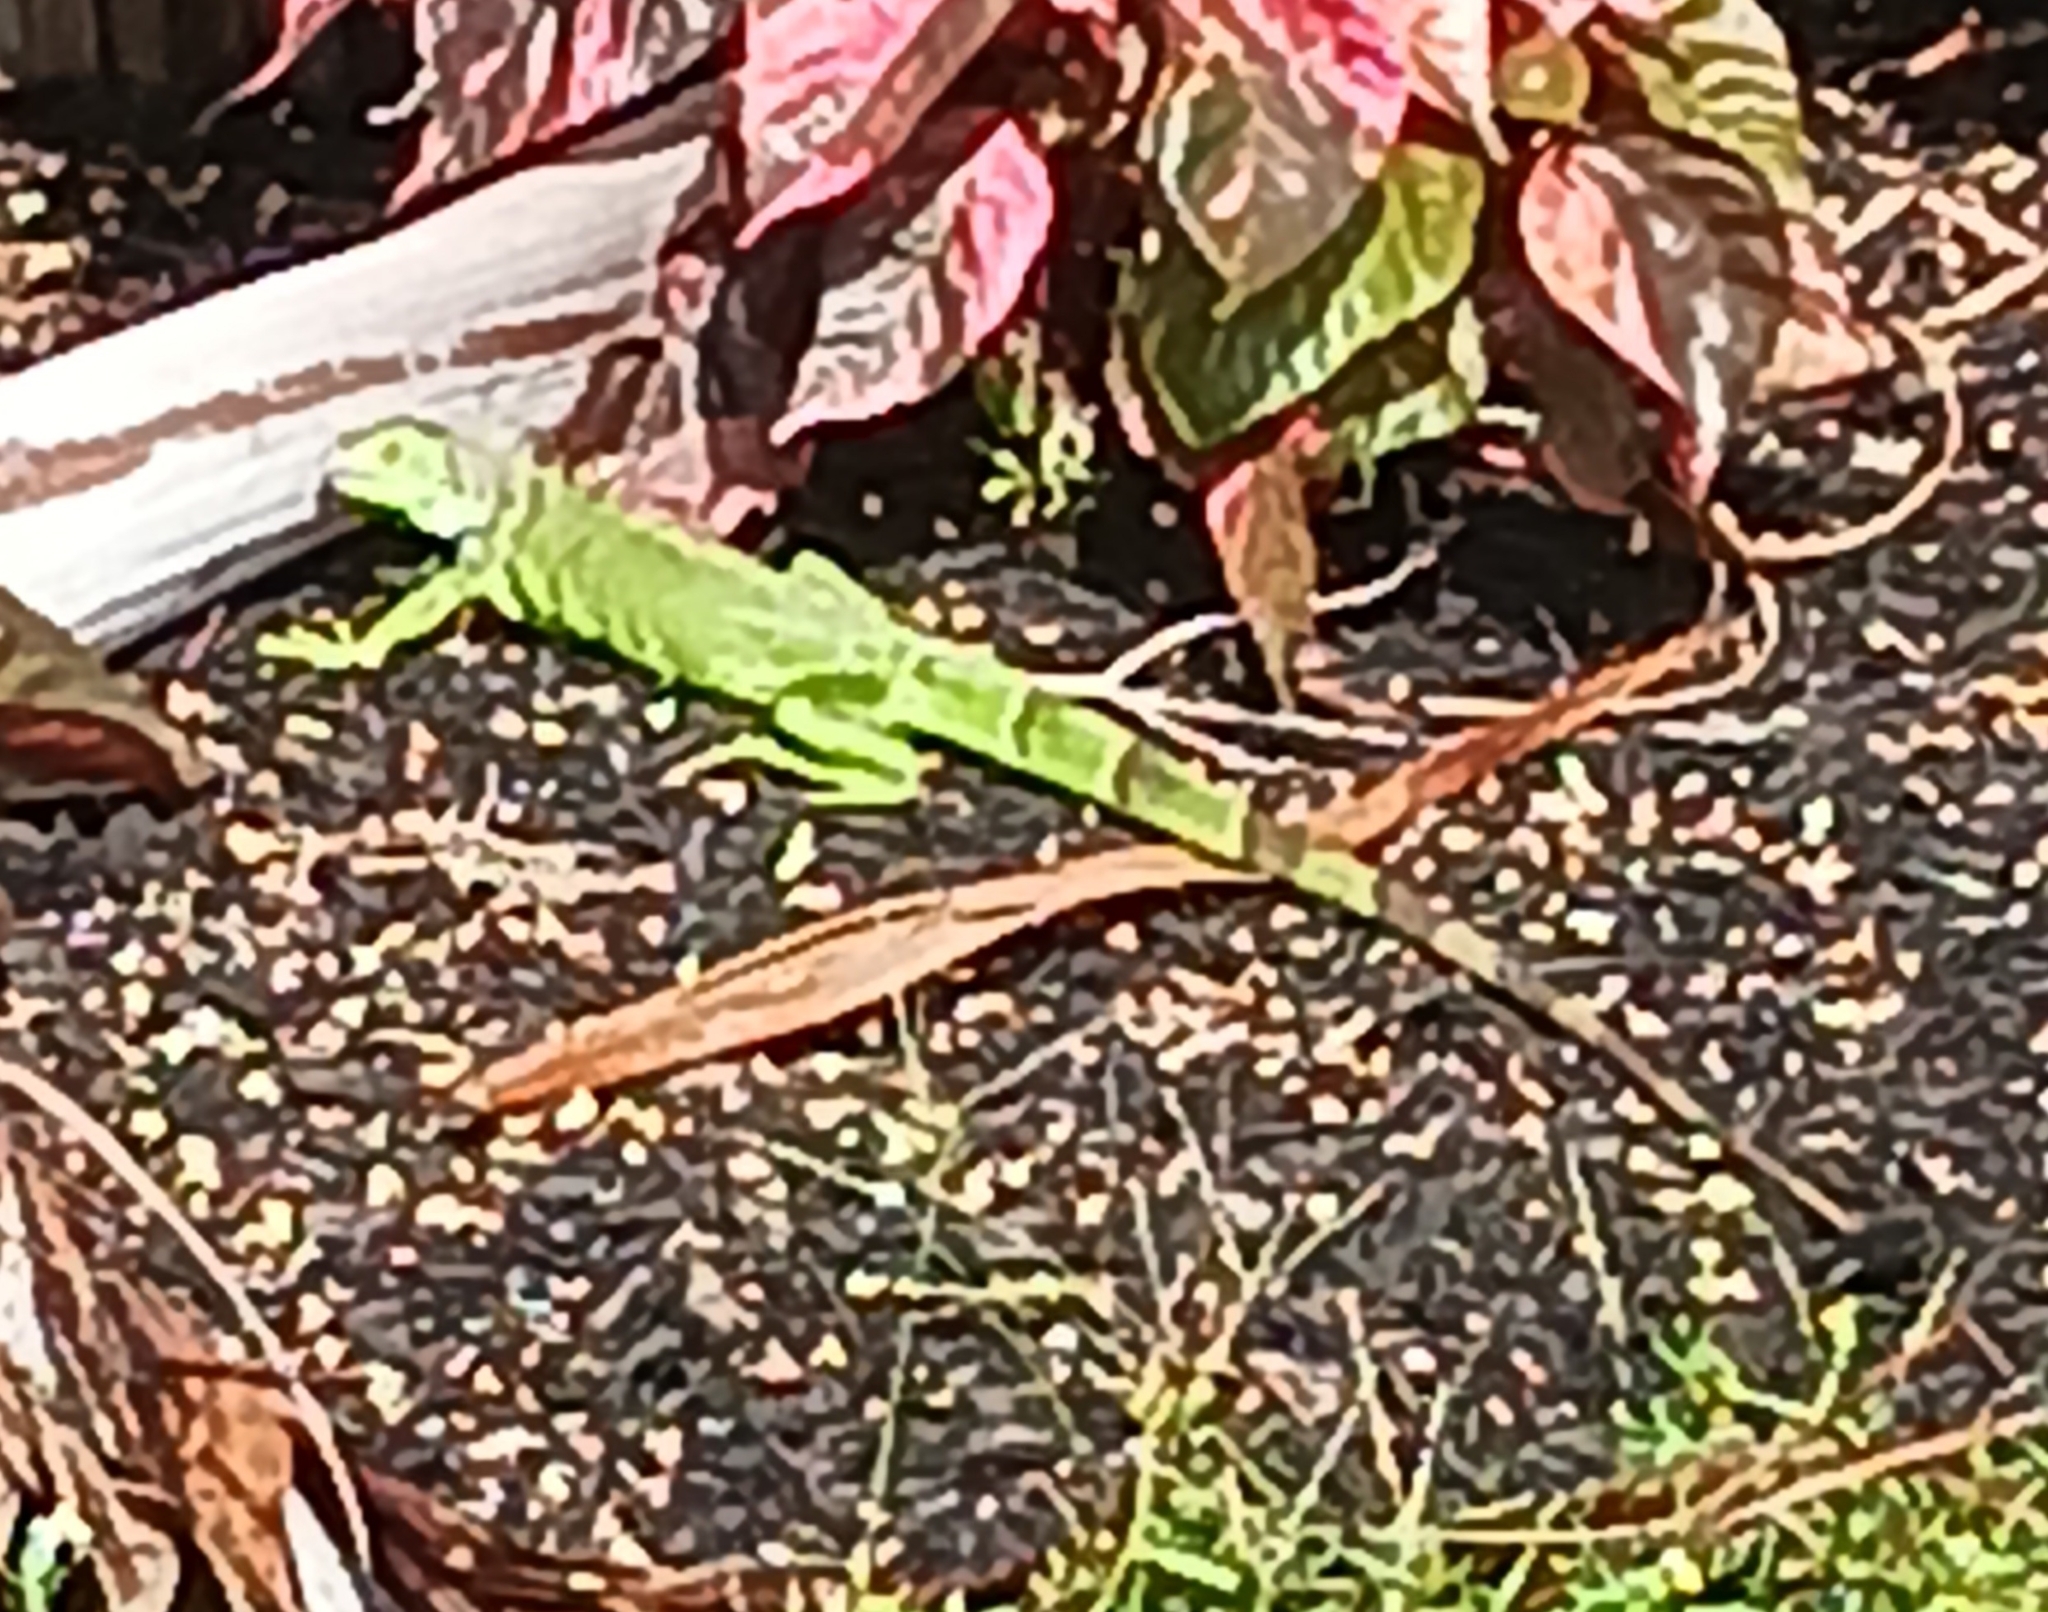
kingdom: Animalia
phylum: Chordata
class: Squamata
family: Iguanidae
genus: Iguana
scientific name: Iguana iguana
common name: Green iguana
